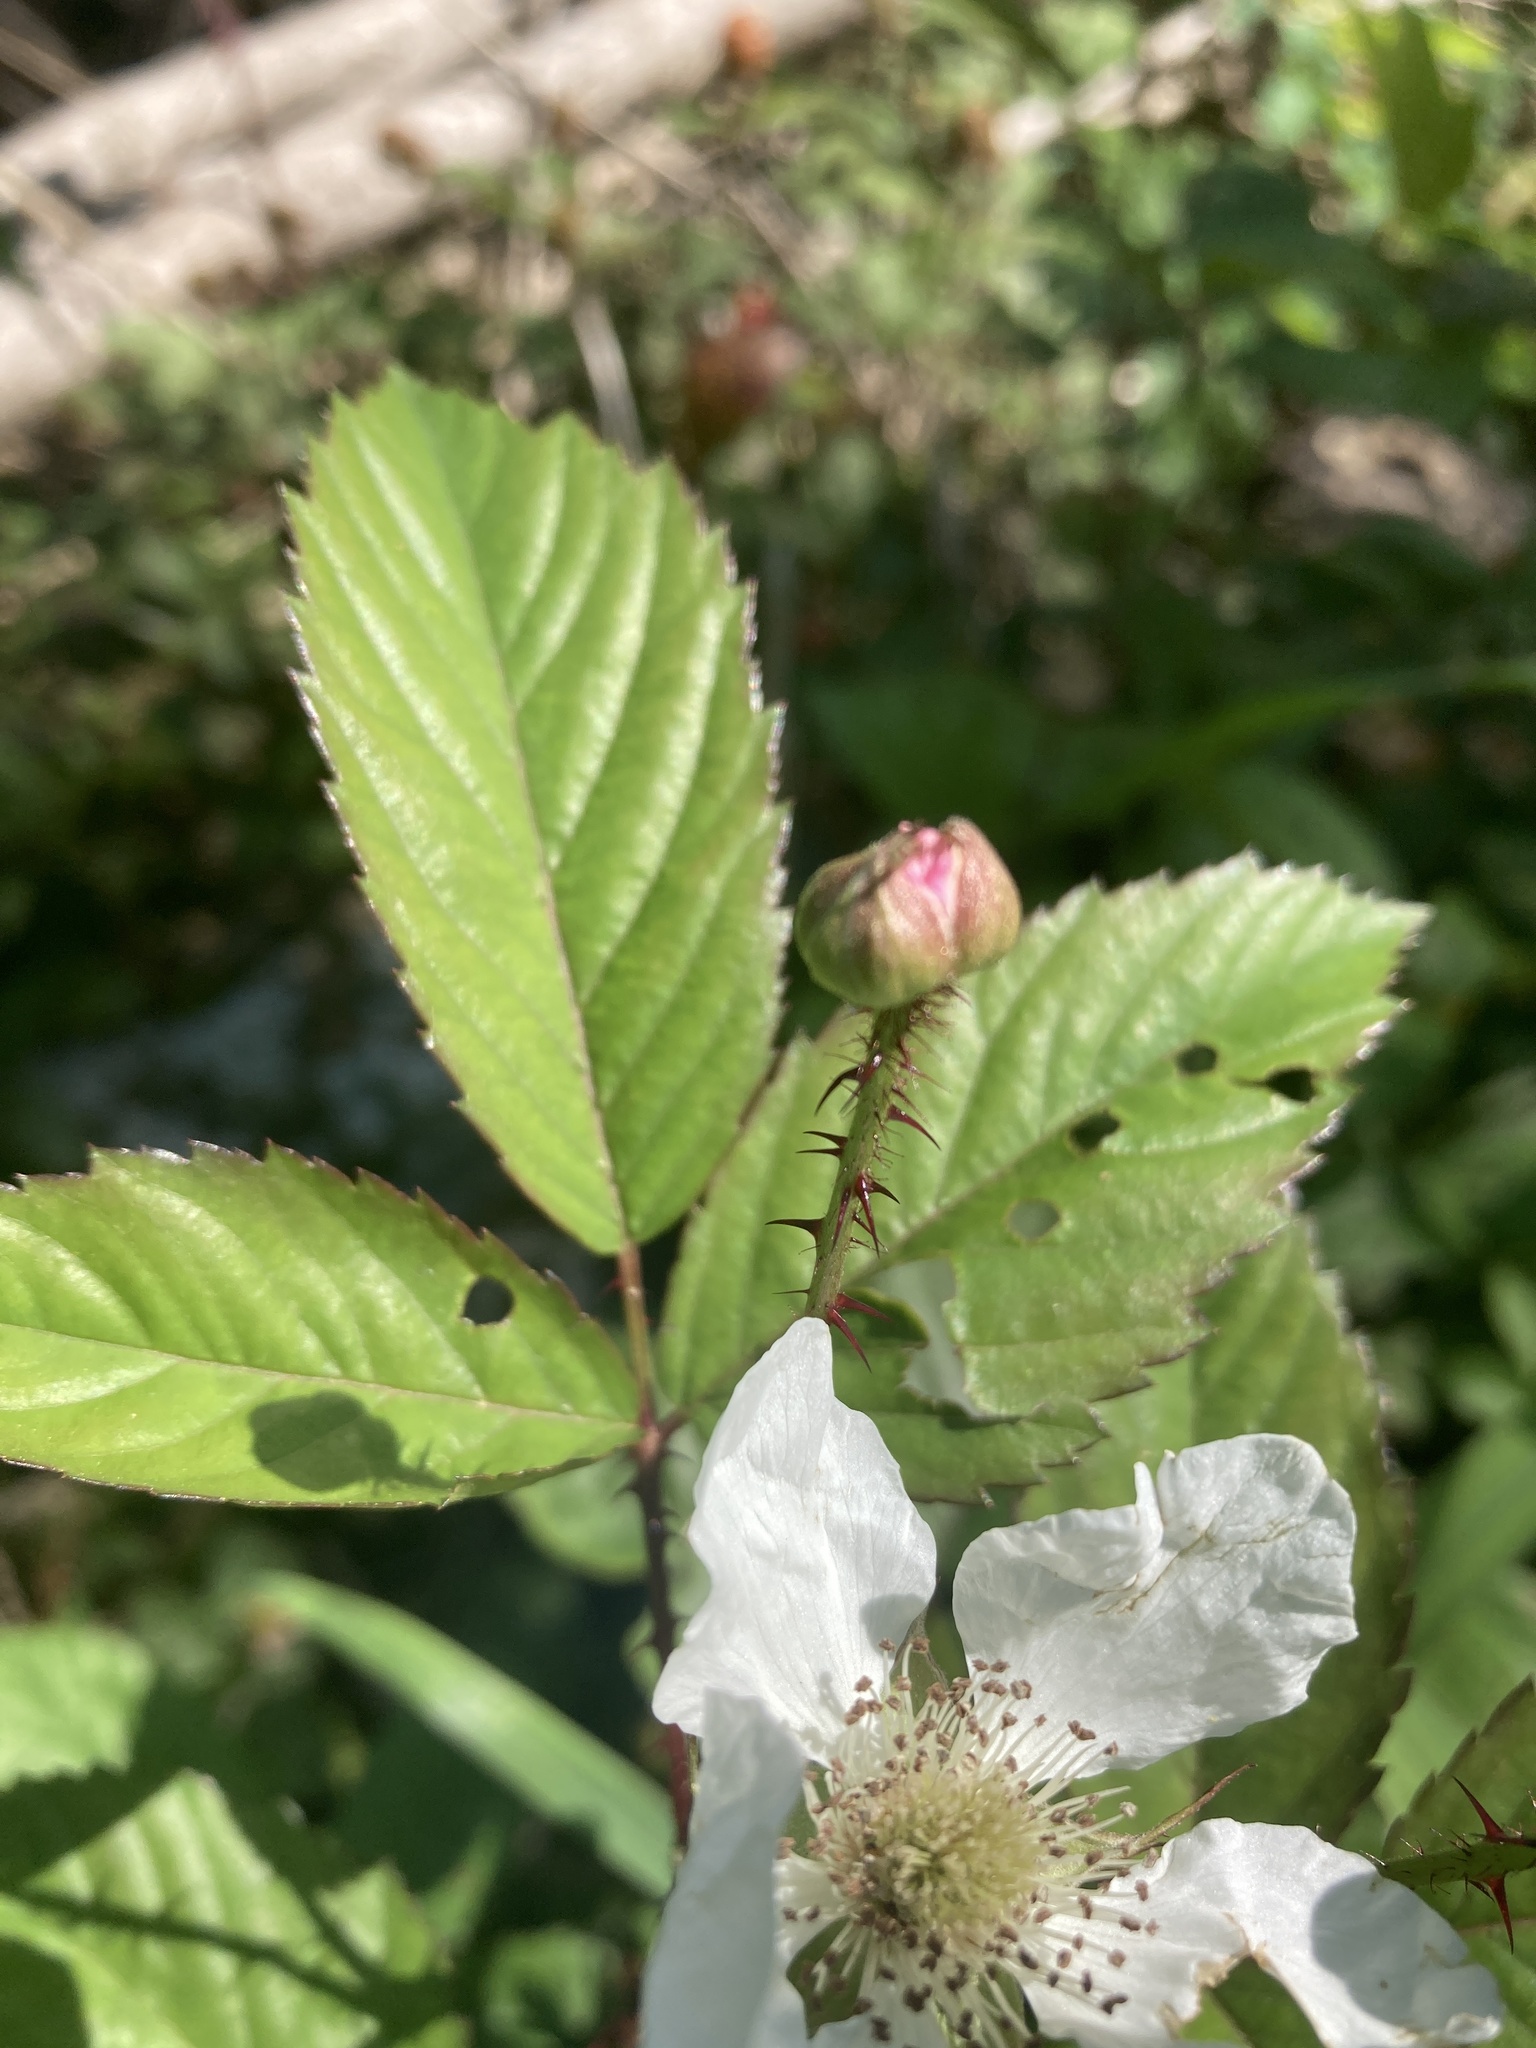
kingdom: Plantae
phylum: Tracheophyta
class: Magnoliopsida
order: Rosales
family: Rosaceae
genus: Rubus
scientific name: Rubus trivialis
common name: Southern dewberry
